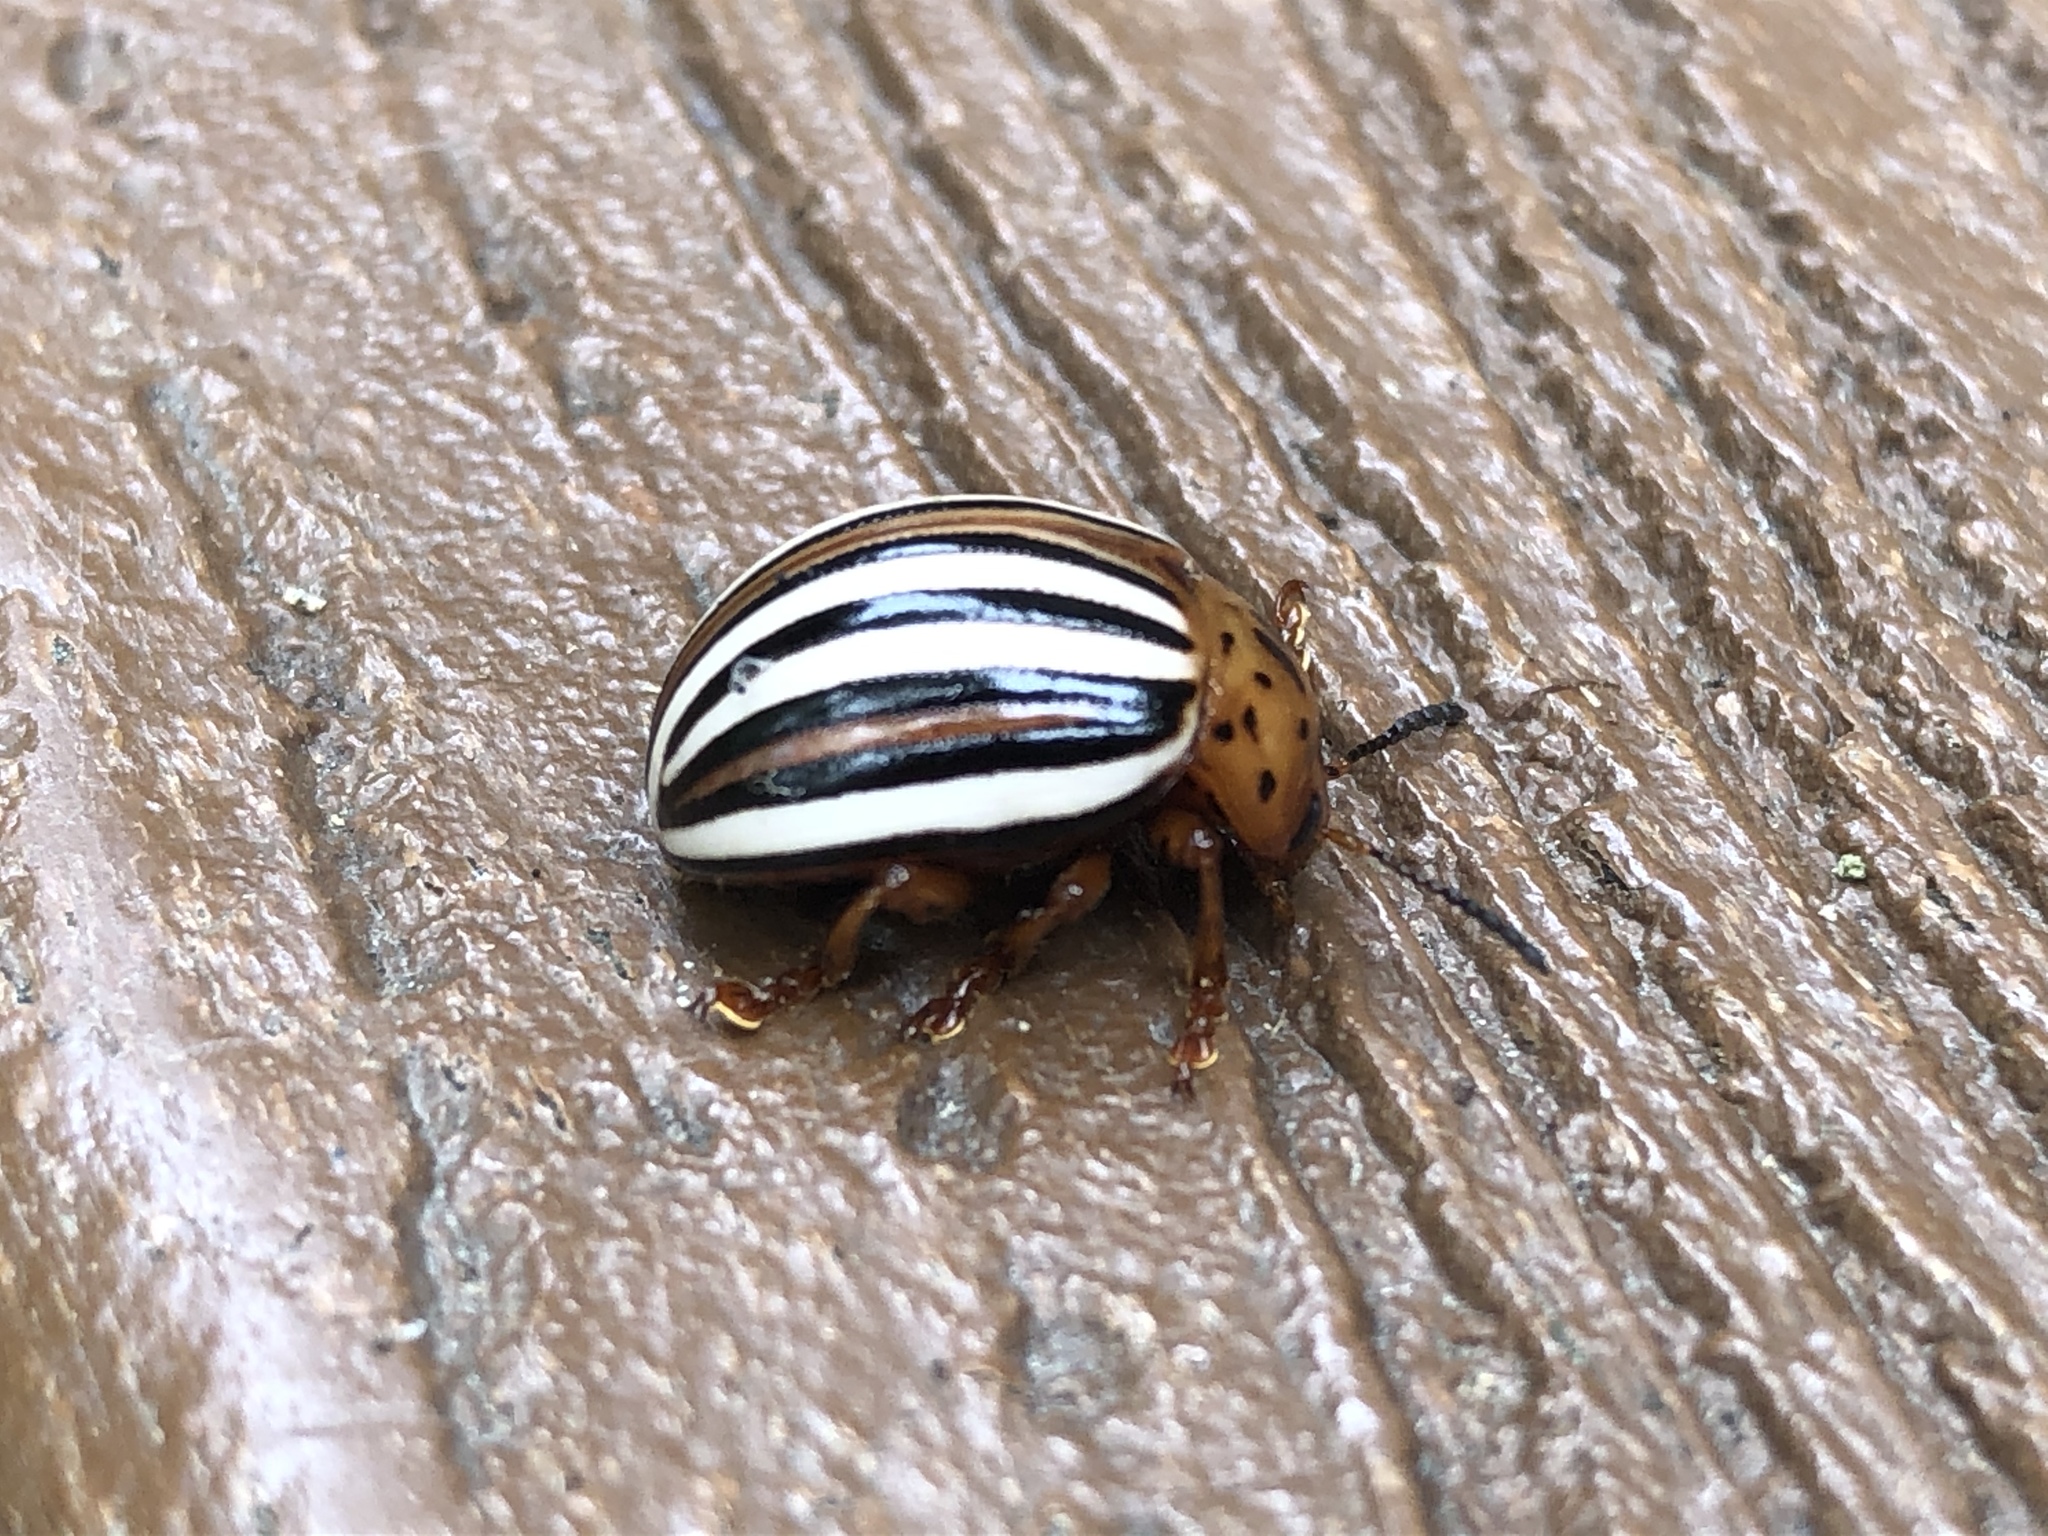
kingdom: Animalia
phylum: Arthropoda
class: Insecta
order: Coleoptera
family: Chrysomelidae
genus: Leptinotarsa
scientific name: Leptinotarsa juncta
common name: False potato beetle
